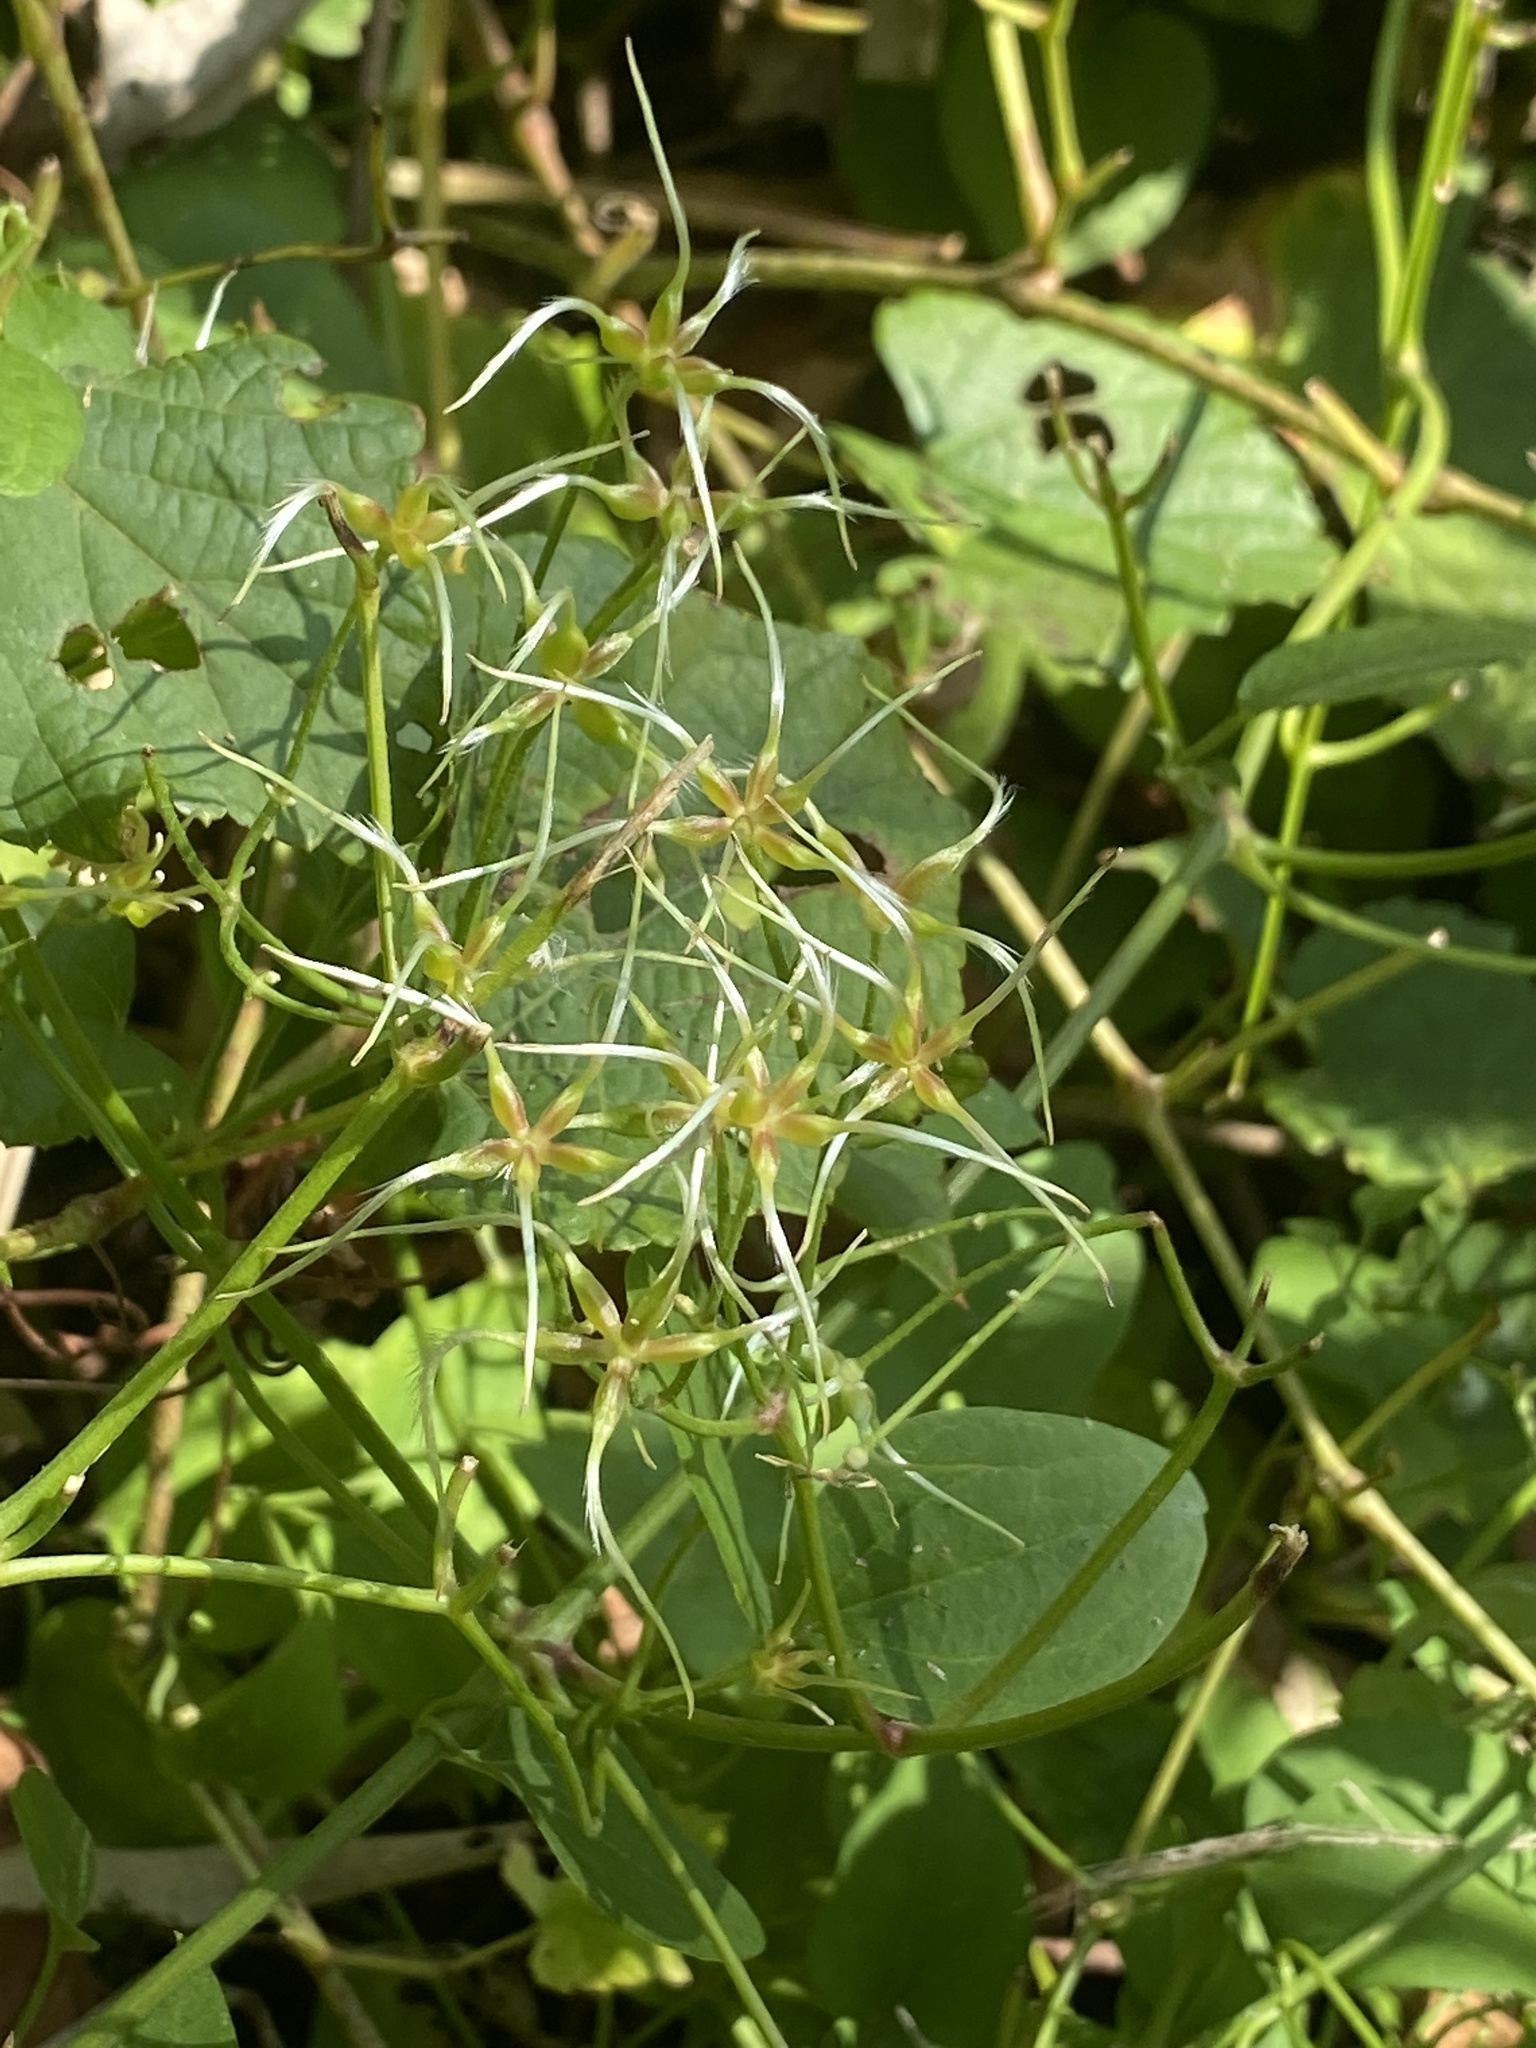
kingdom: Plantae
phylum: Tracheophyta
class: Magnoliopsida
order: Ranunculales
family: Ranunculaceae
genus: Clematis
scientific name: Clematis terniflora
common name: Sweet autumn clematis
